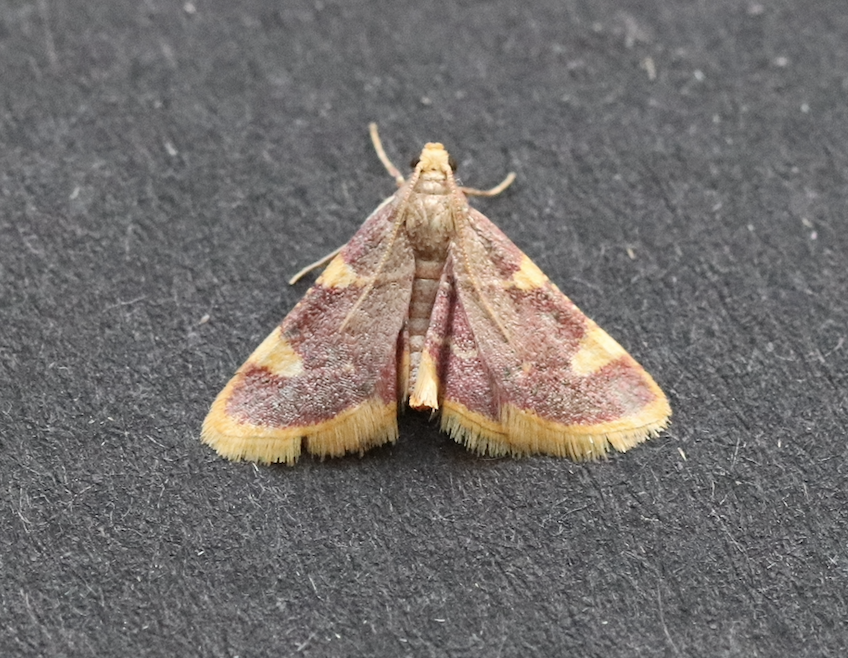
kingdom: Animalia
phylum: Arthropoda
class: Insecta
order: Lepidoptera
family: Pyralidae
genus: Hypsopygia
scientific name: Hypsopygia costalis
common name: Gold triangle
